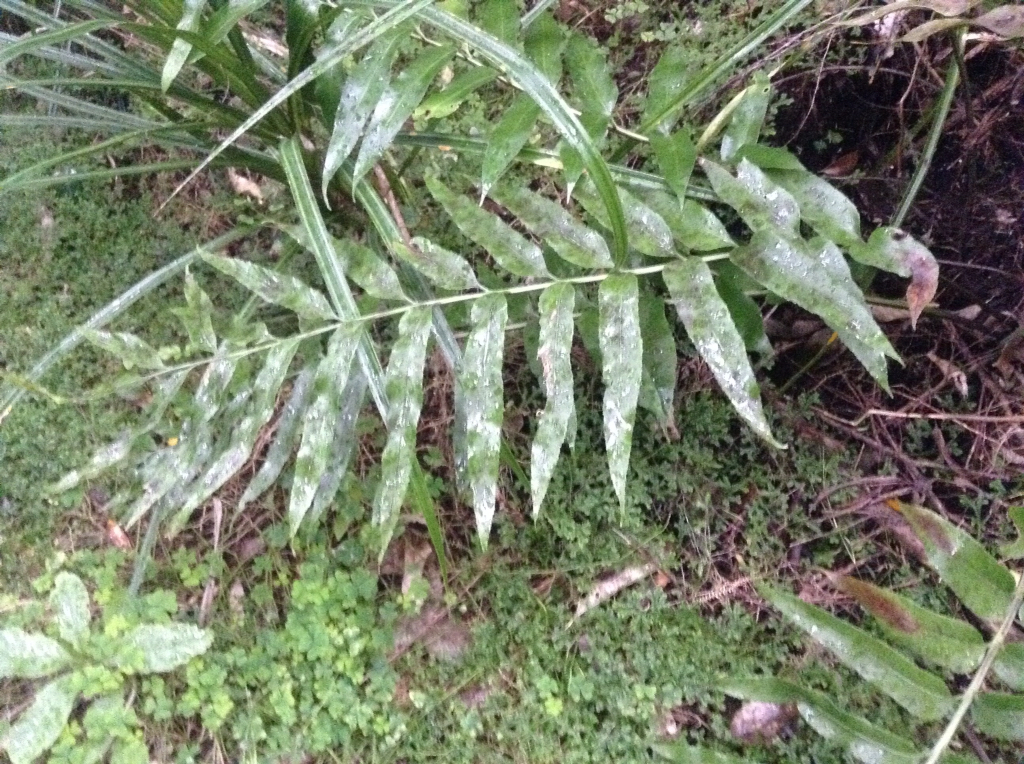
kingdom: Plantae
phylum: Tracheophyta
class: Polypodiopsida
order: Polypodiales
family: Aspleniaceae
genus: Asplenium
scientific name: Asplenium oblongifolium
